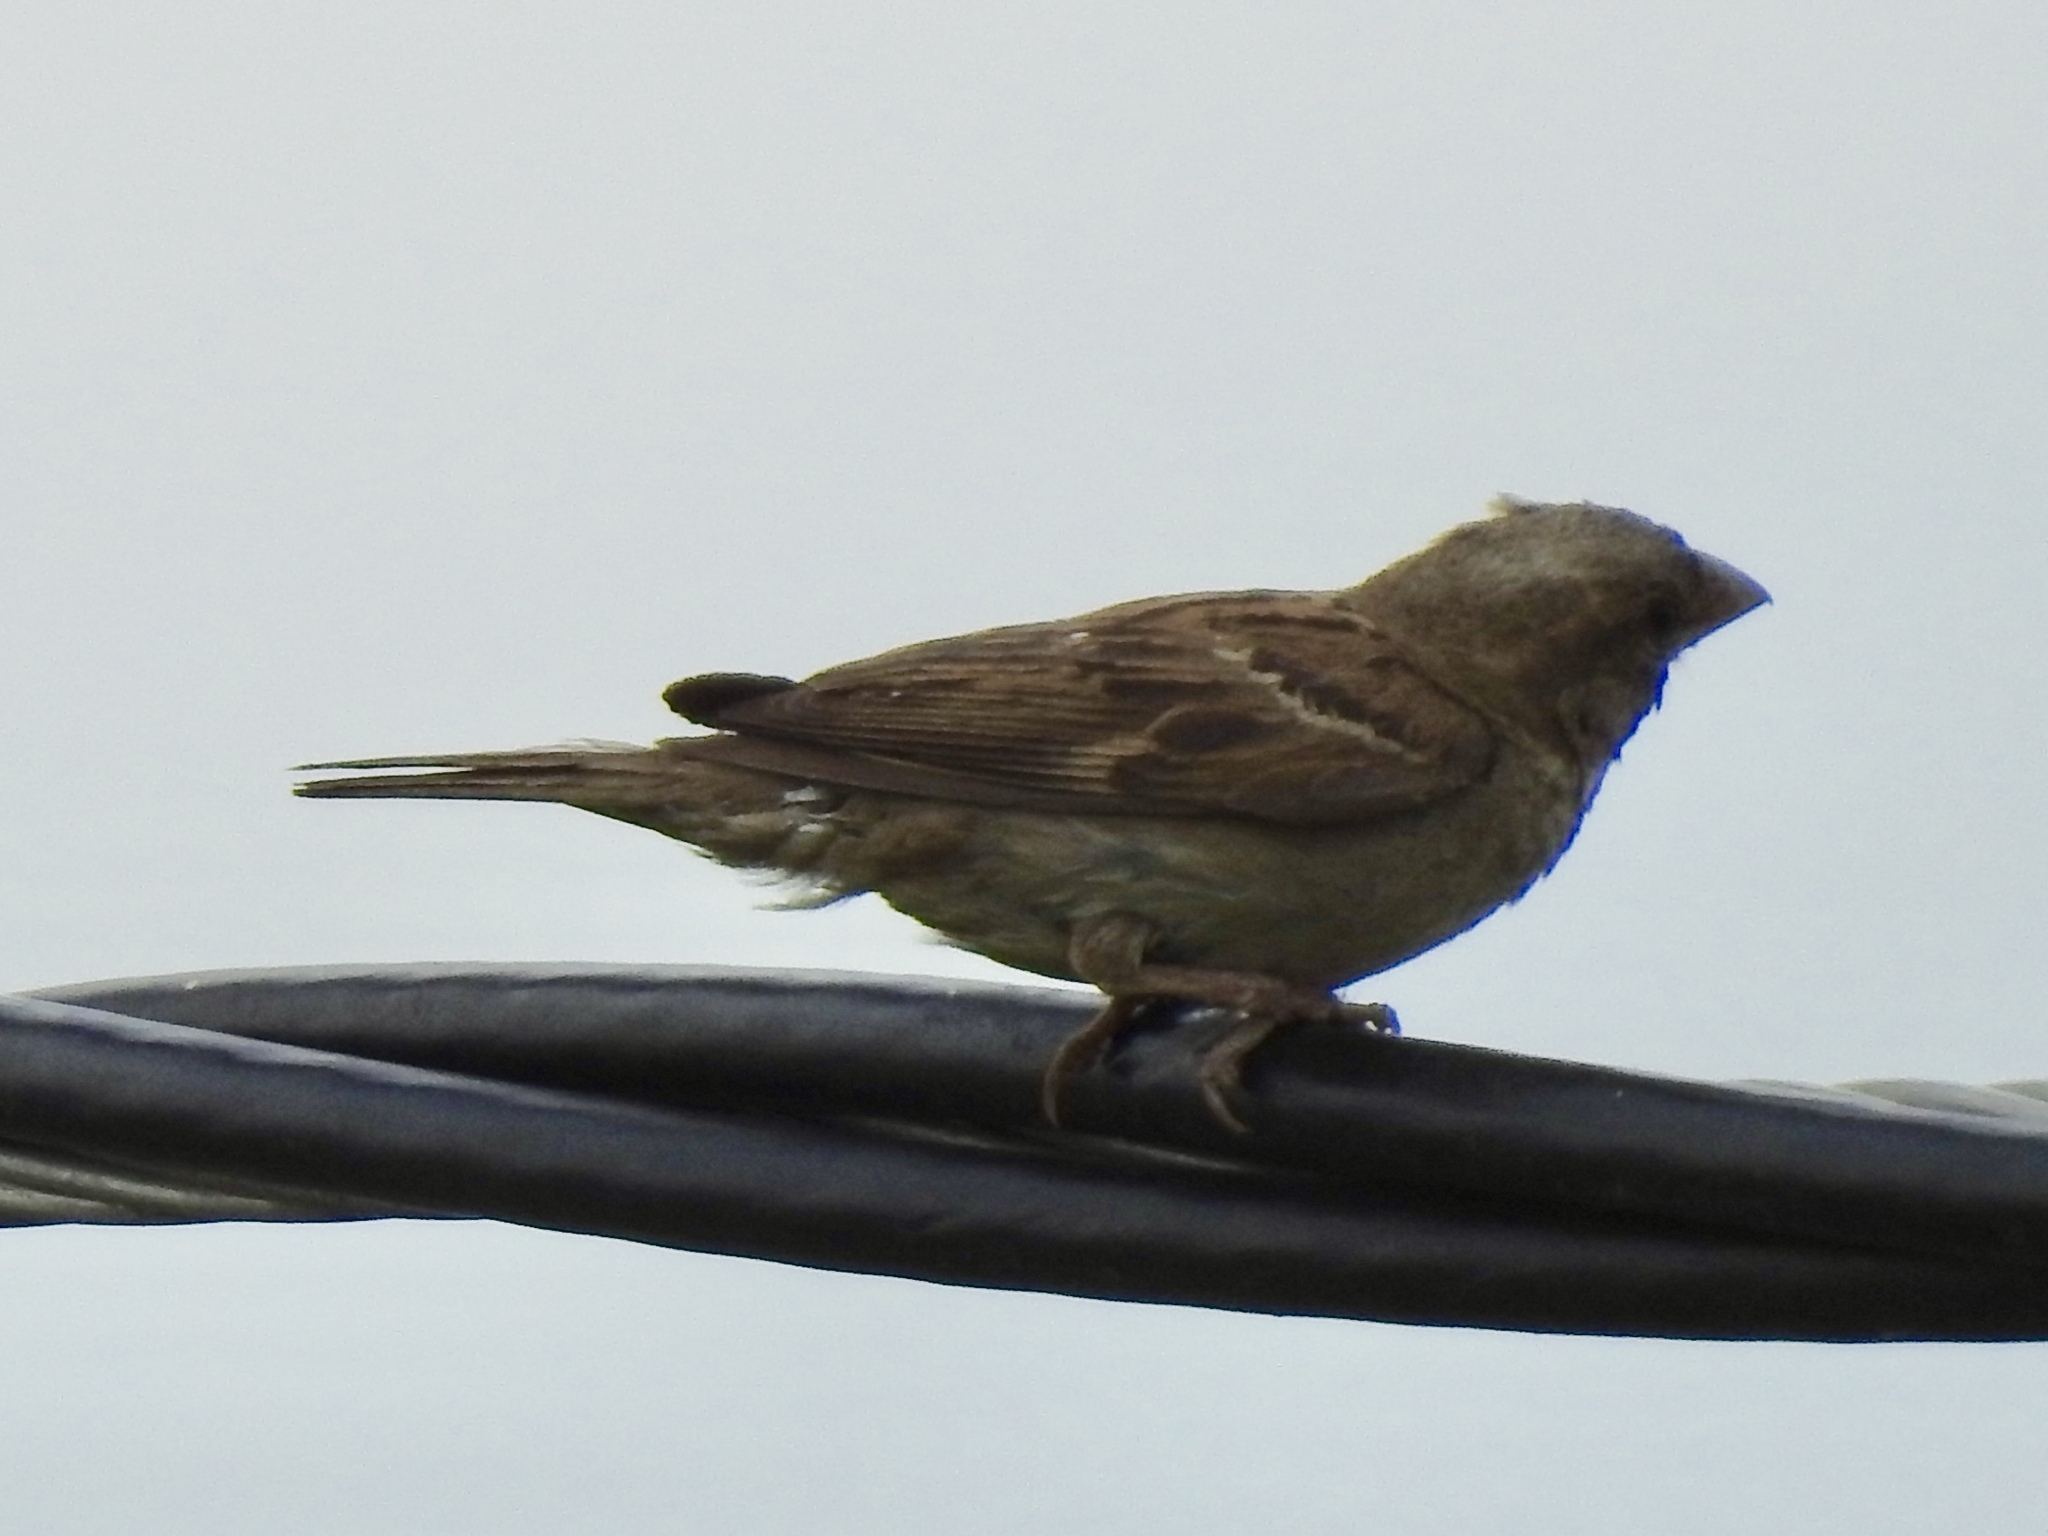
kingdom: Animalia
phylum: Chordata
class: Aves
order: Passeriformes
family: Passeridae
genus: Passer
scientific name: Passer domesticus
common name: House sparrow
